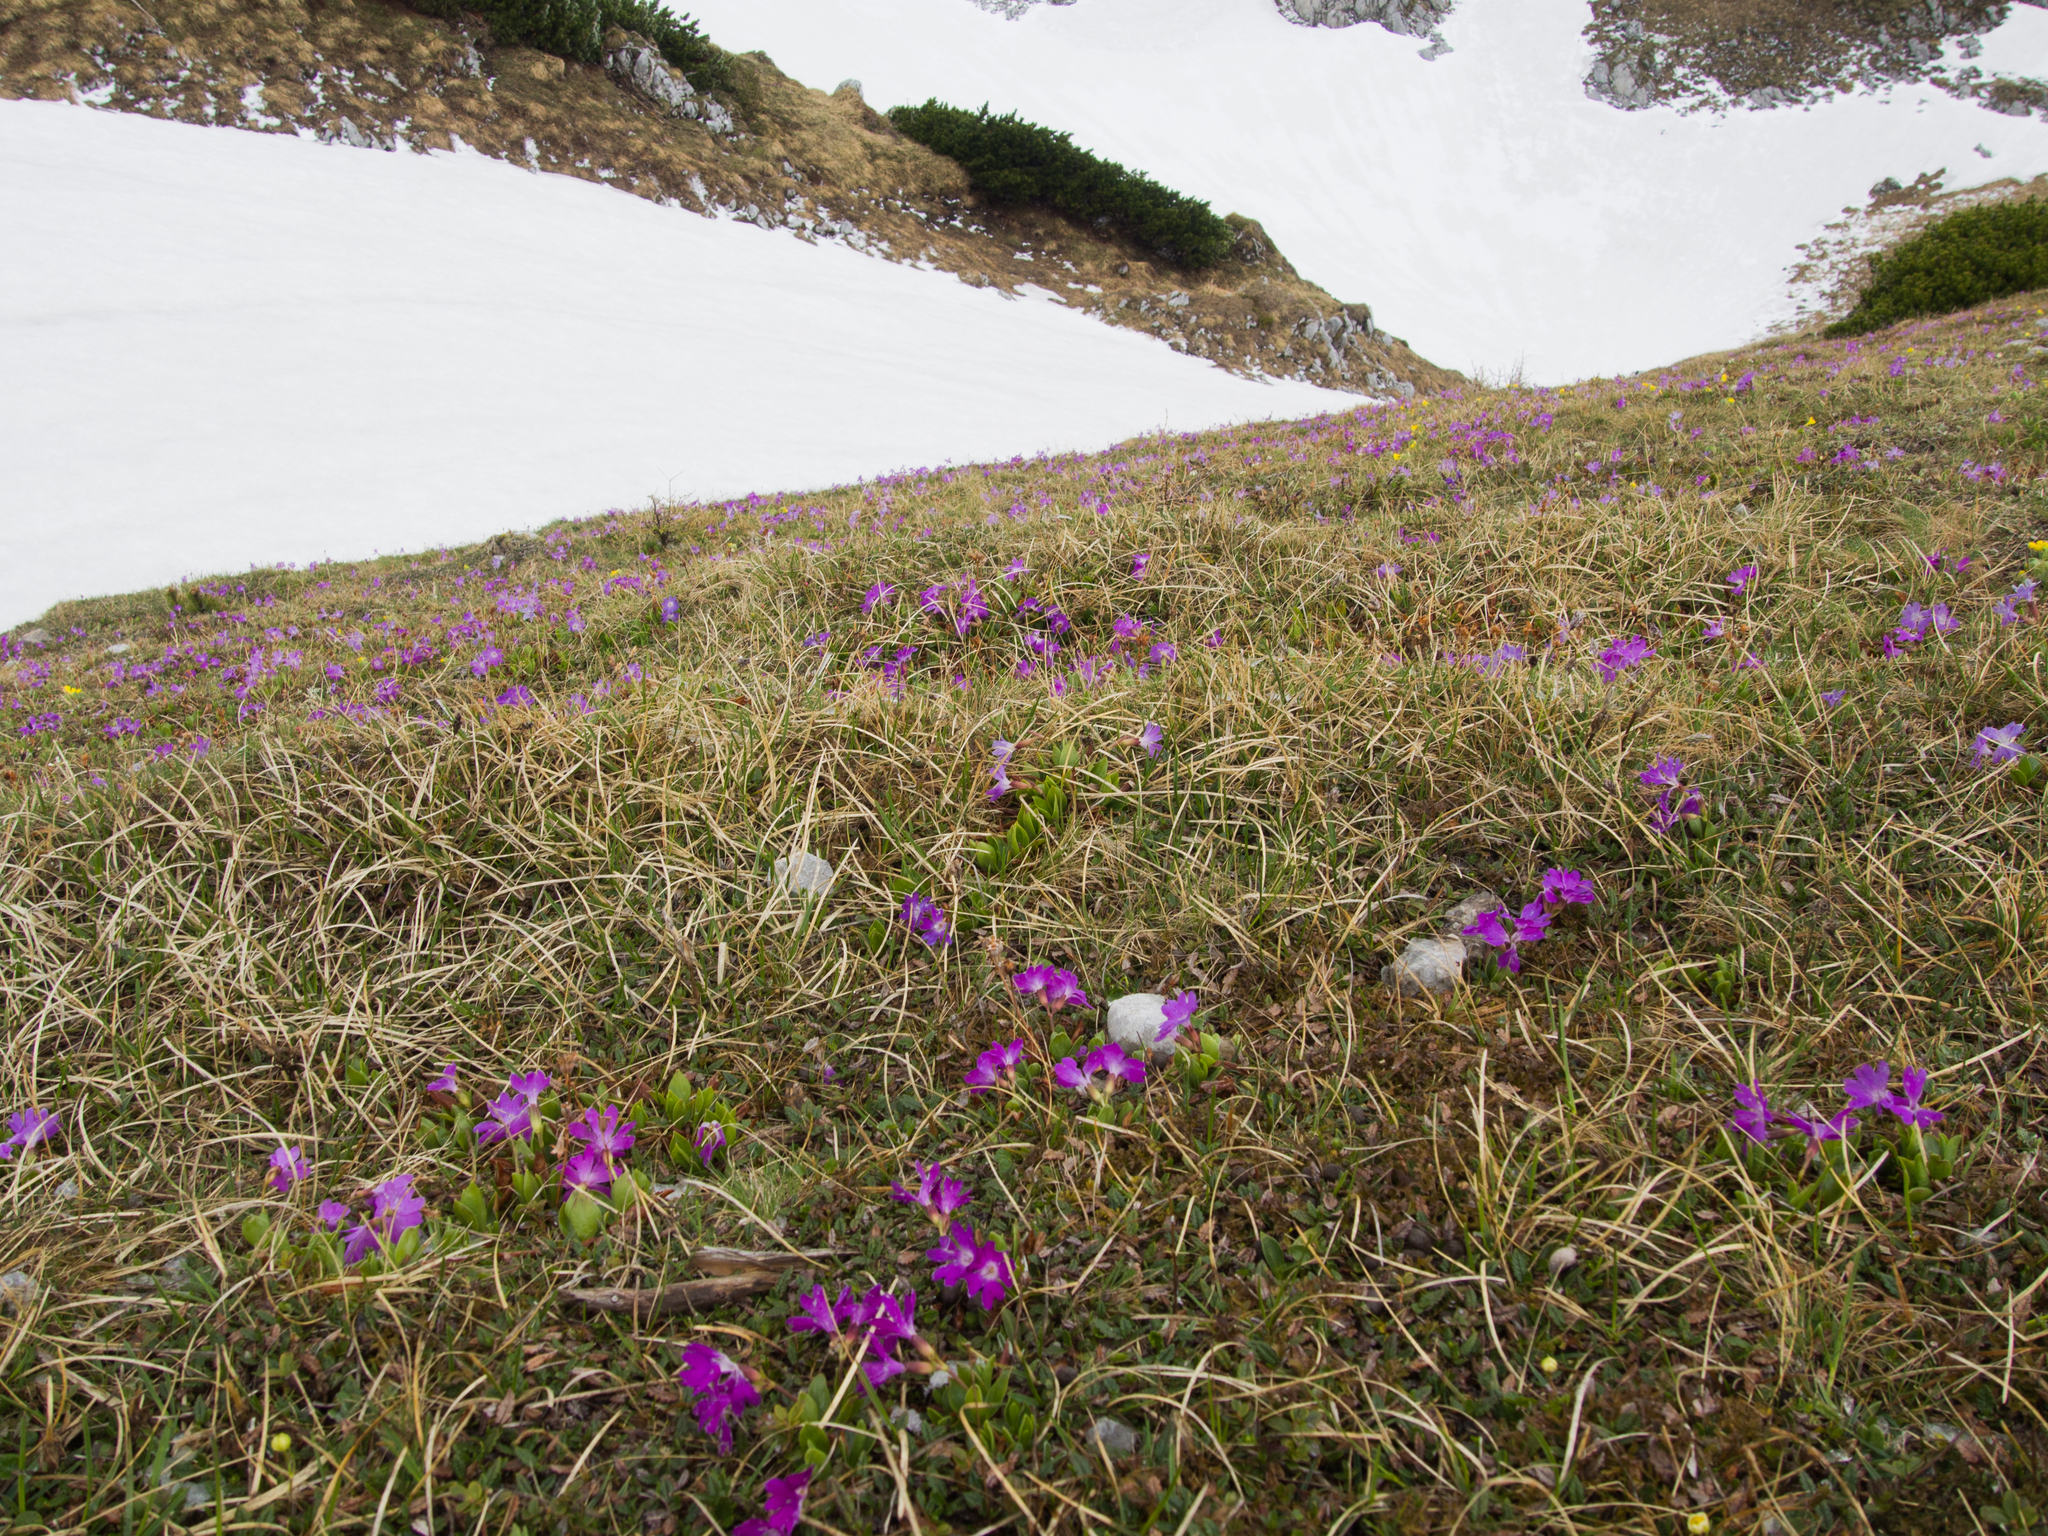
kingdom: Plantae
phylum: Tracheophyta
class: Magnoliopsida
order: Ericales
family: Primulaceae
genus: Primula
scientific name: Primula clusiana
